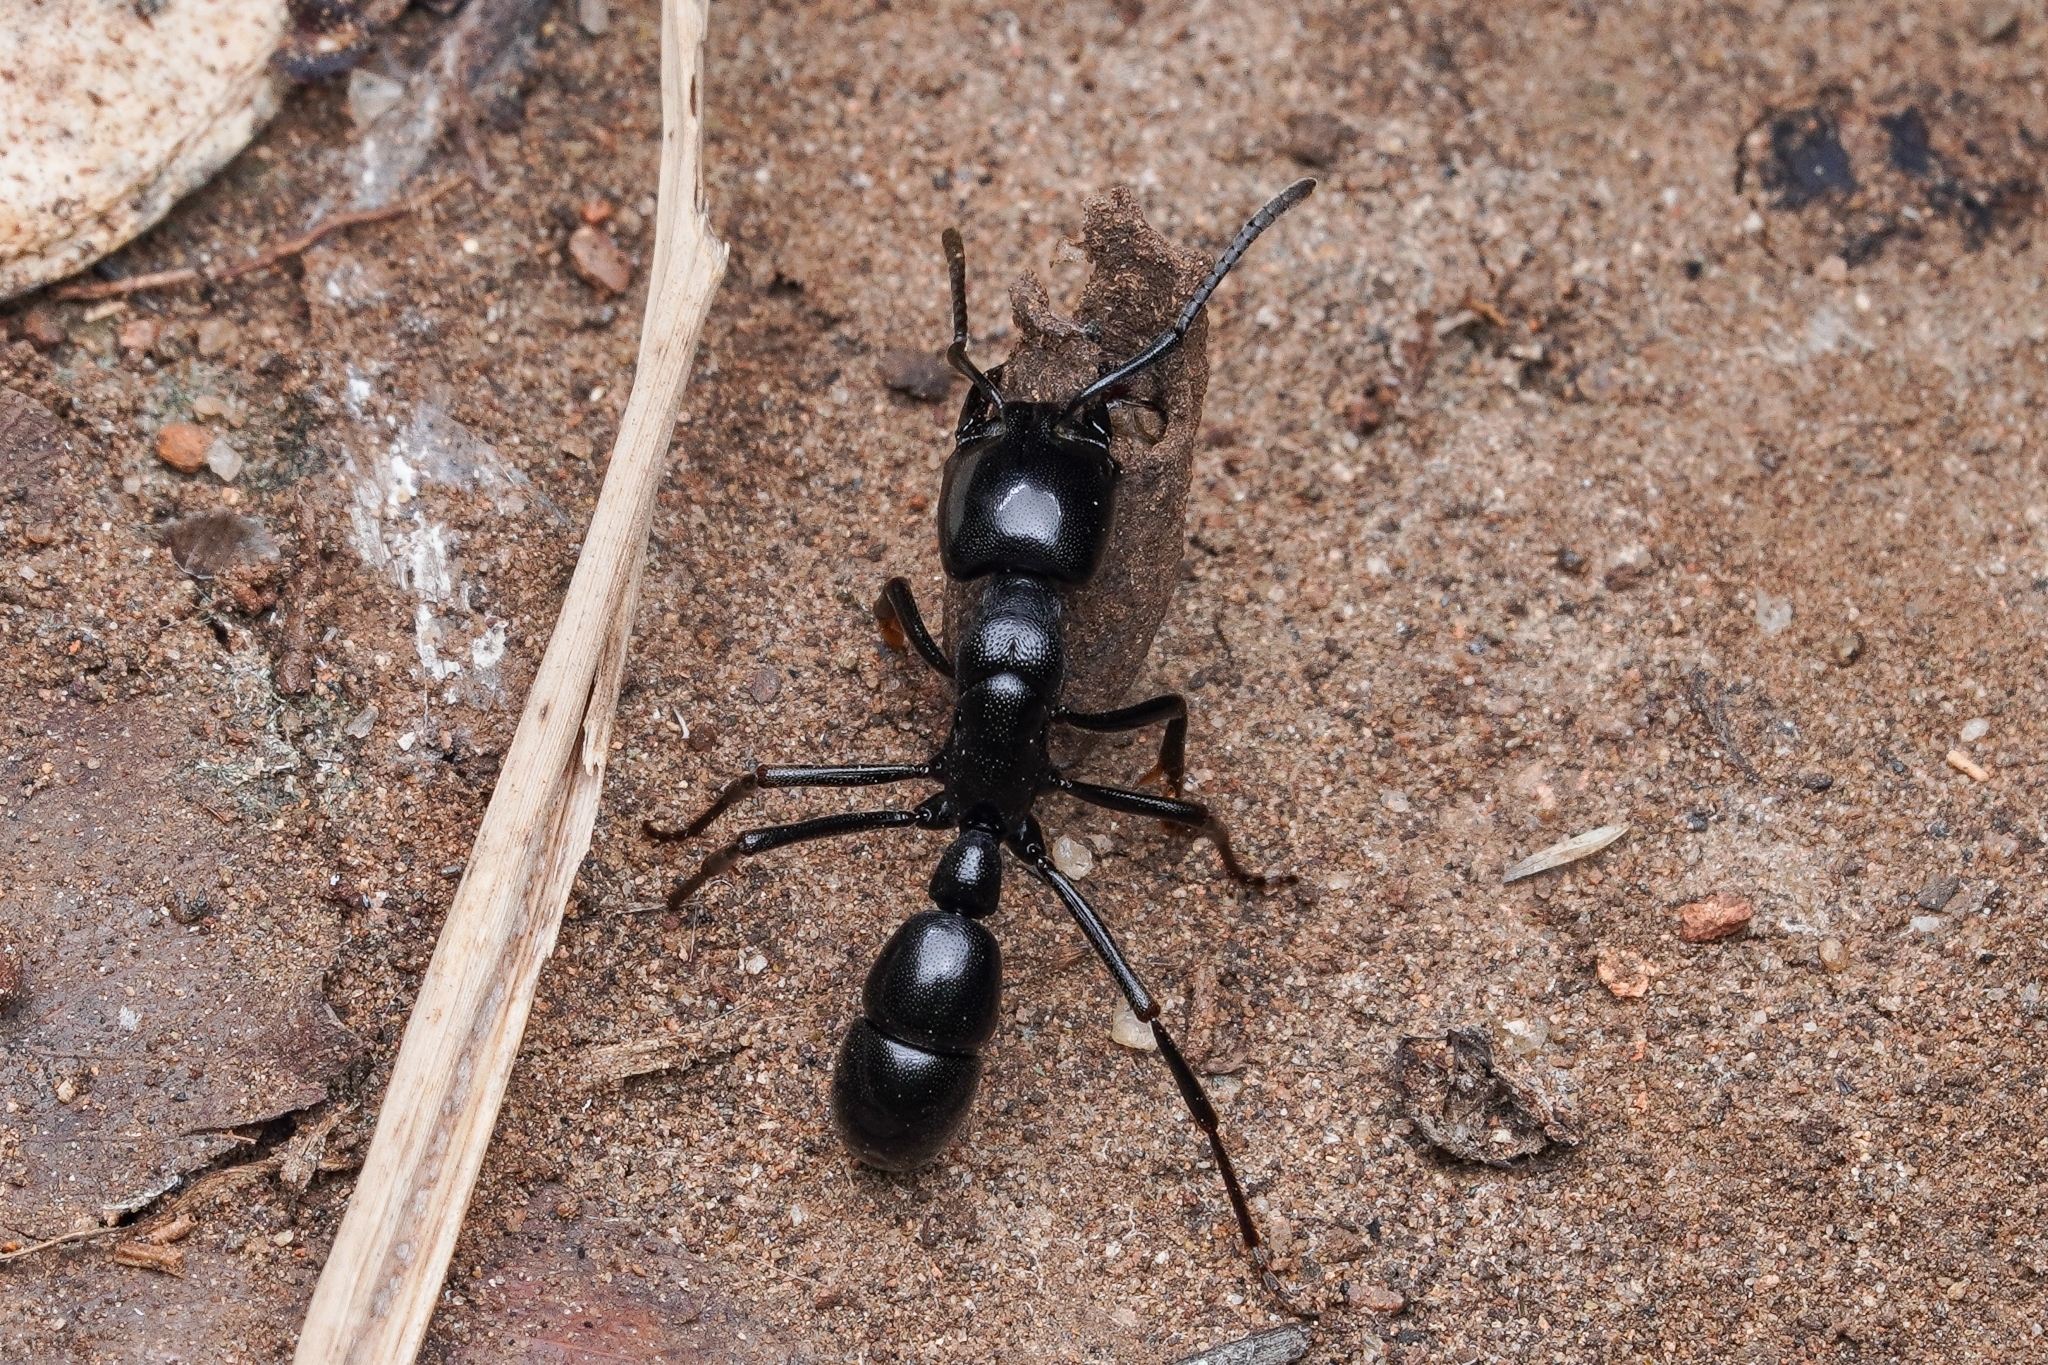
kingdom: Animalia
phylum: Arthropoda
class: Insecta
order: Hymenoptera
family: Formicidae
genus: Plectroctena
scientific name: Plectroctena mandibularis
